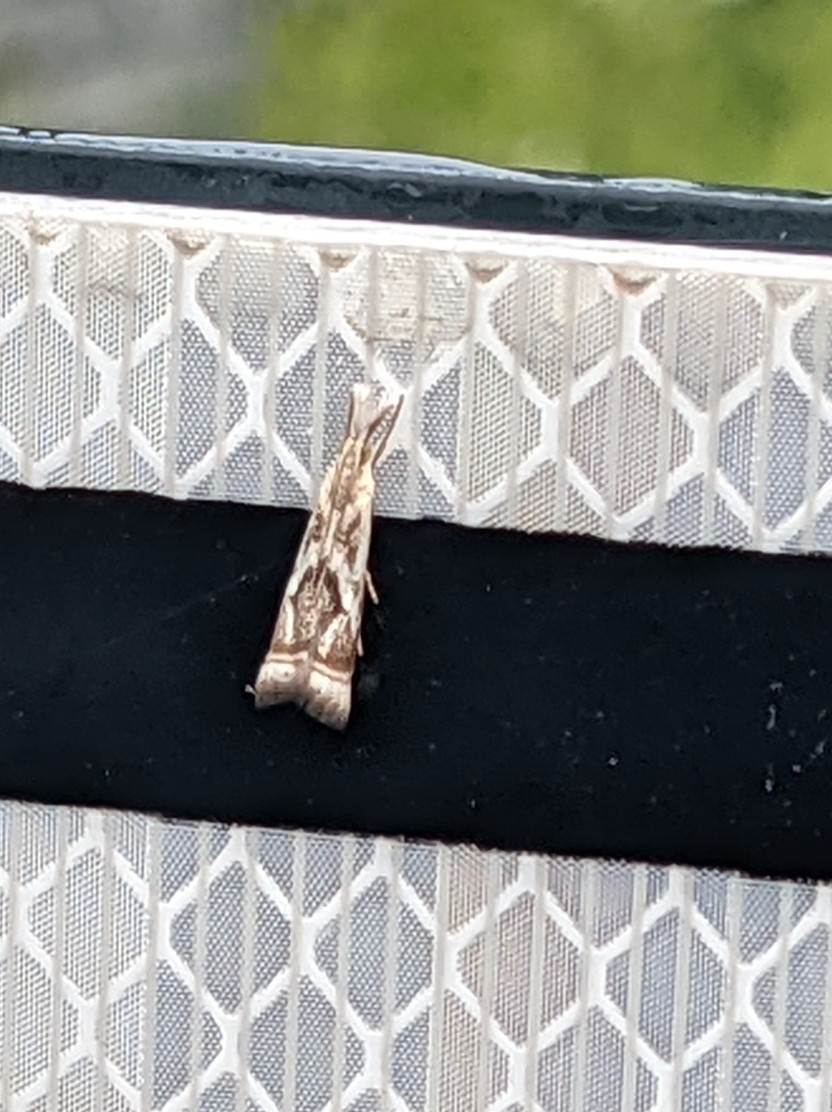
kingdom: Animalia
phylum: Arthropoda
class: Insecta
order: Lepidoptera
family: Crambidae
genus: Microcrambus
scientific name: Microcrambus elegans
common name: Elegant grass-veneer
